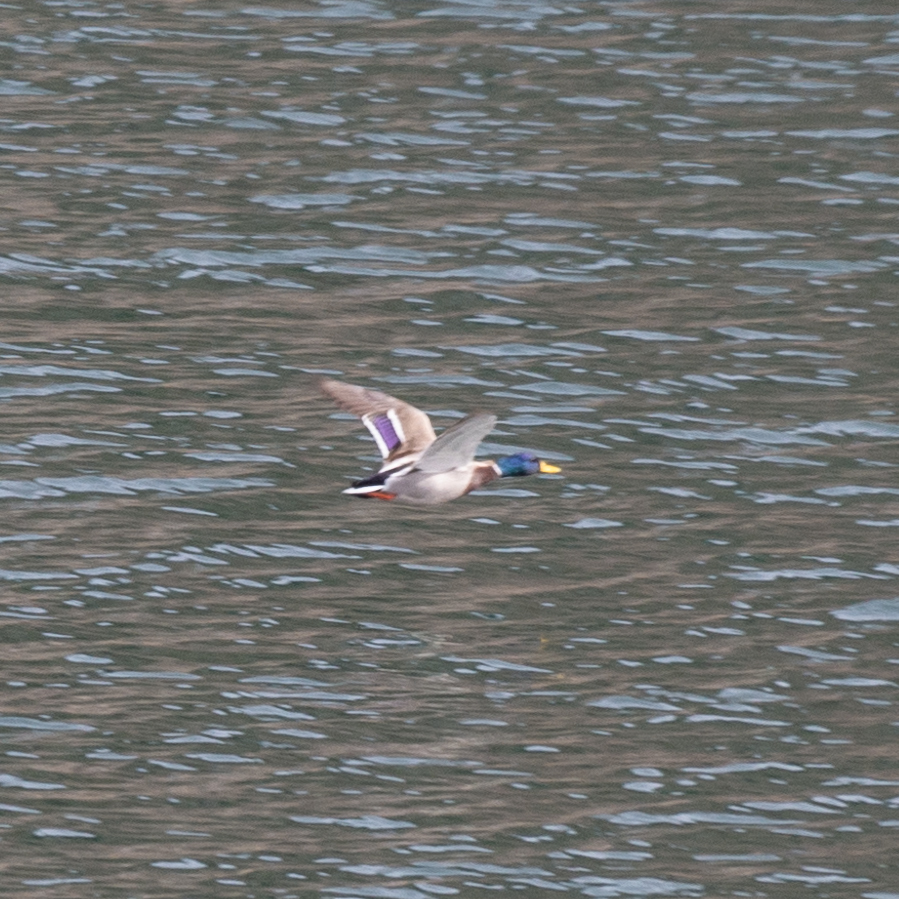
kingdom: Animalia
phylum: Chordata
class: Aves
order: Anseriformes
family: Anatidae
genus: Anas
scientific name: Anas platyrhynchos
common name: Mallard
